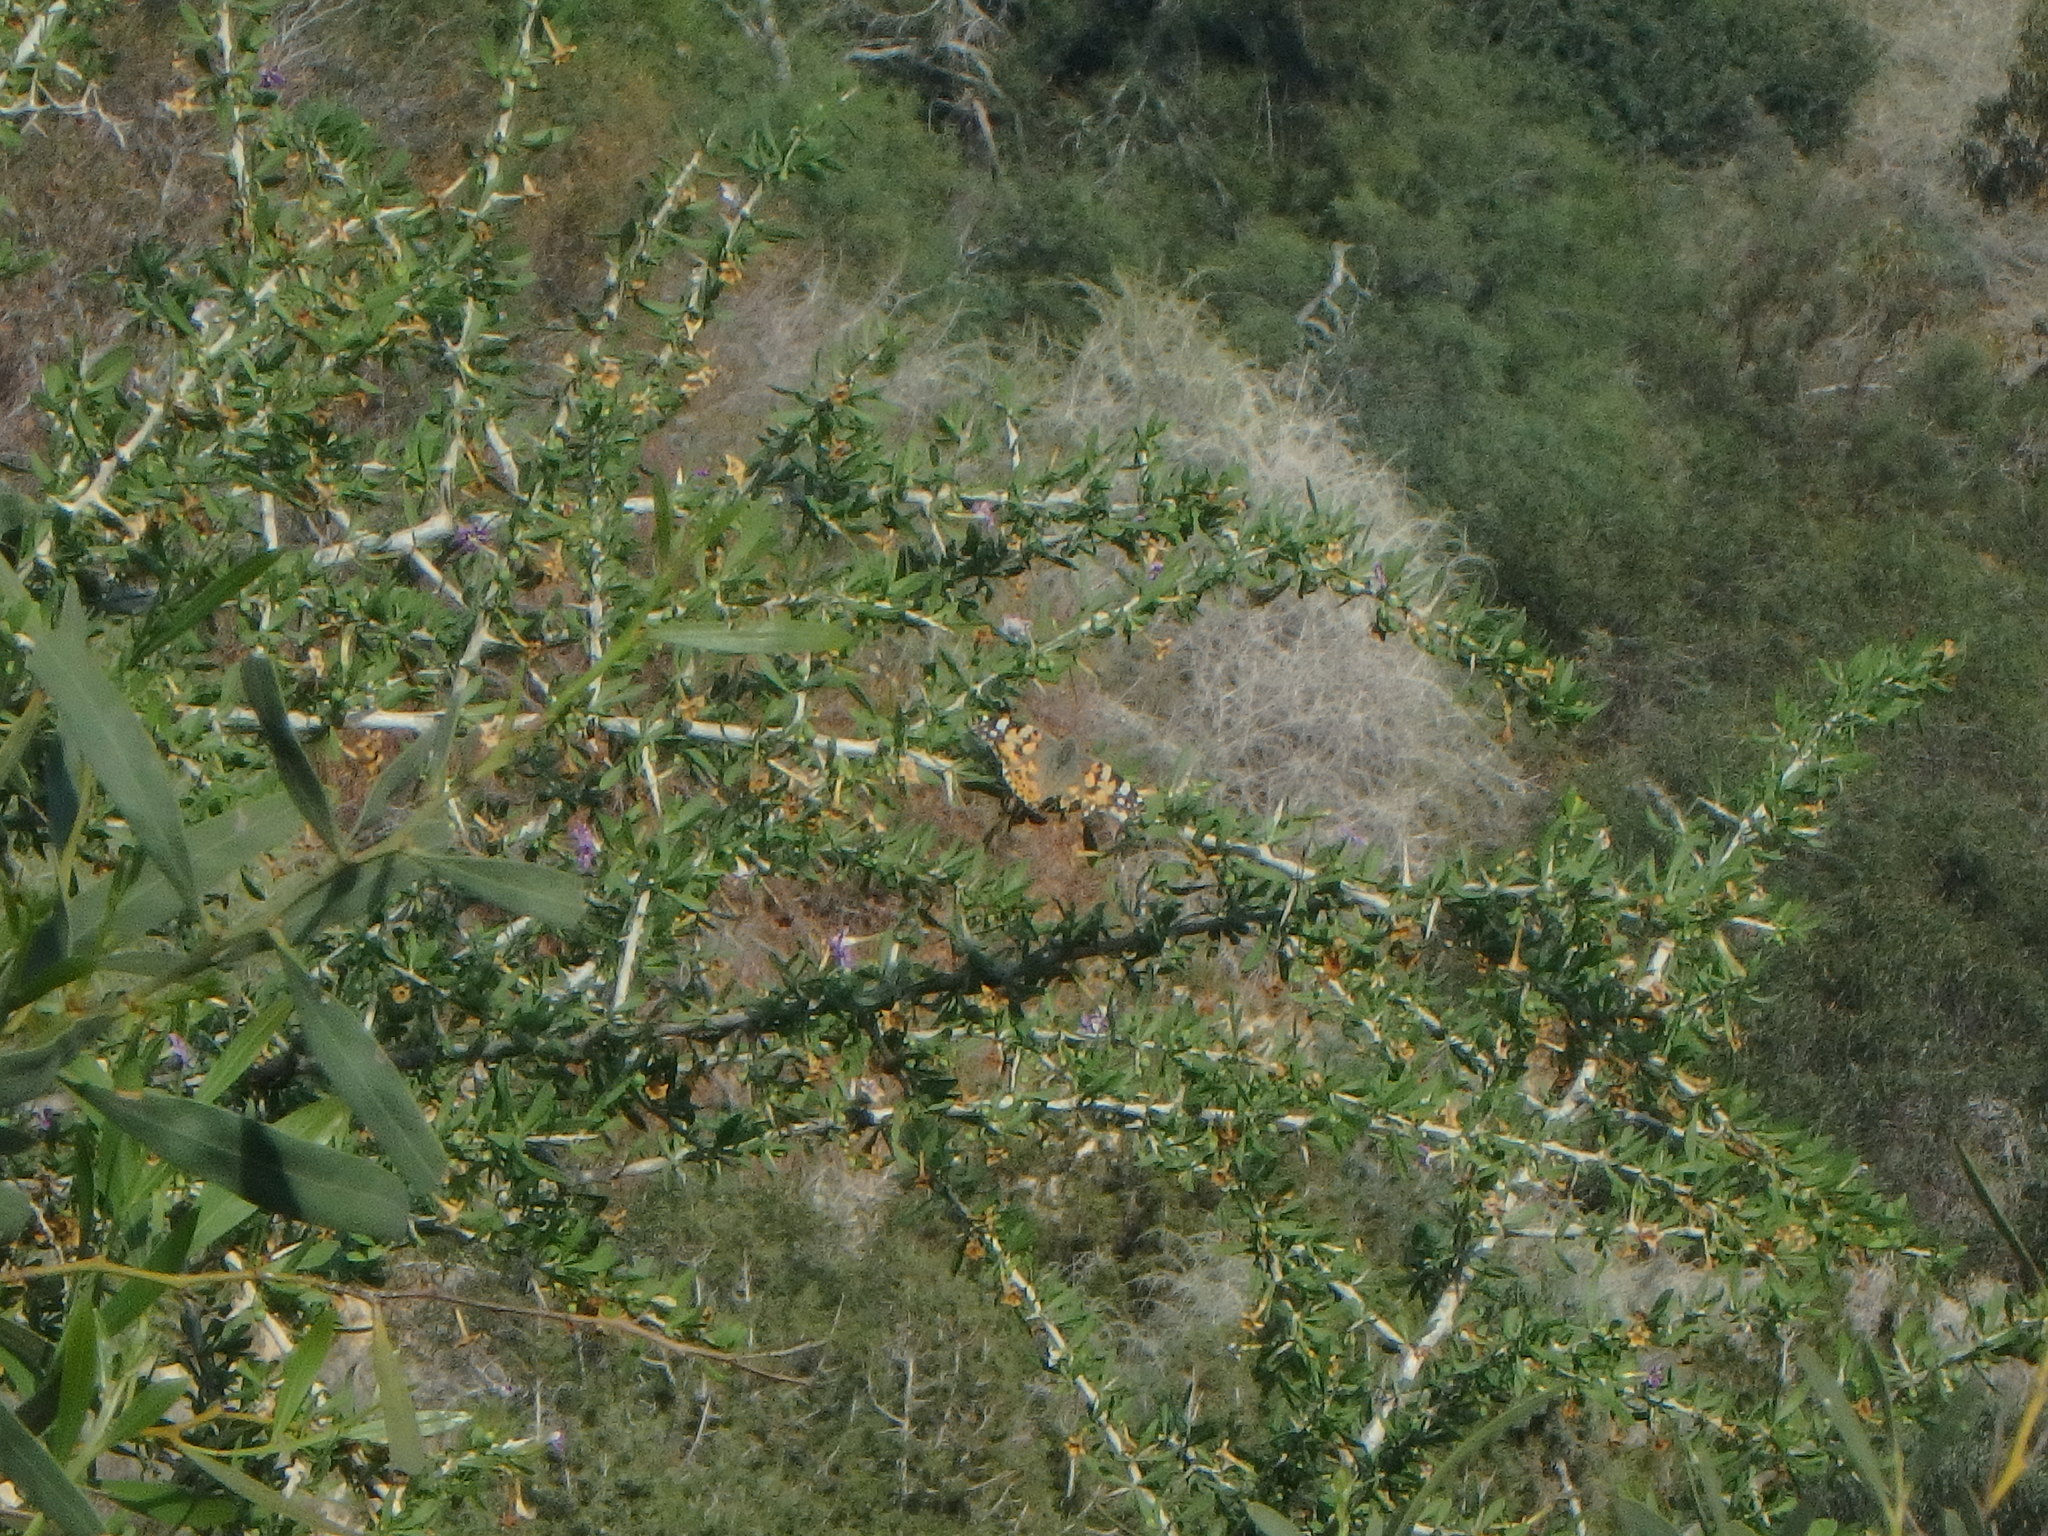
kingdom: Animalia
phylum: Arthropoda
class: Insecta
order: Lepidoptera
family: Nymphalidae
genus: Vanessa
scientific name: Vanessa cardui
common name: Painted lady
